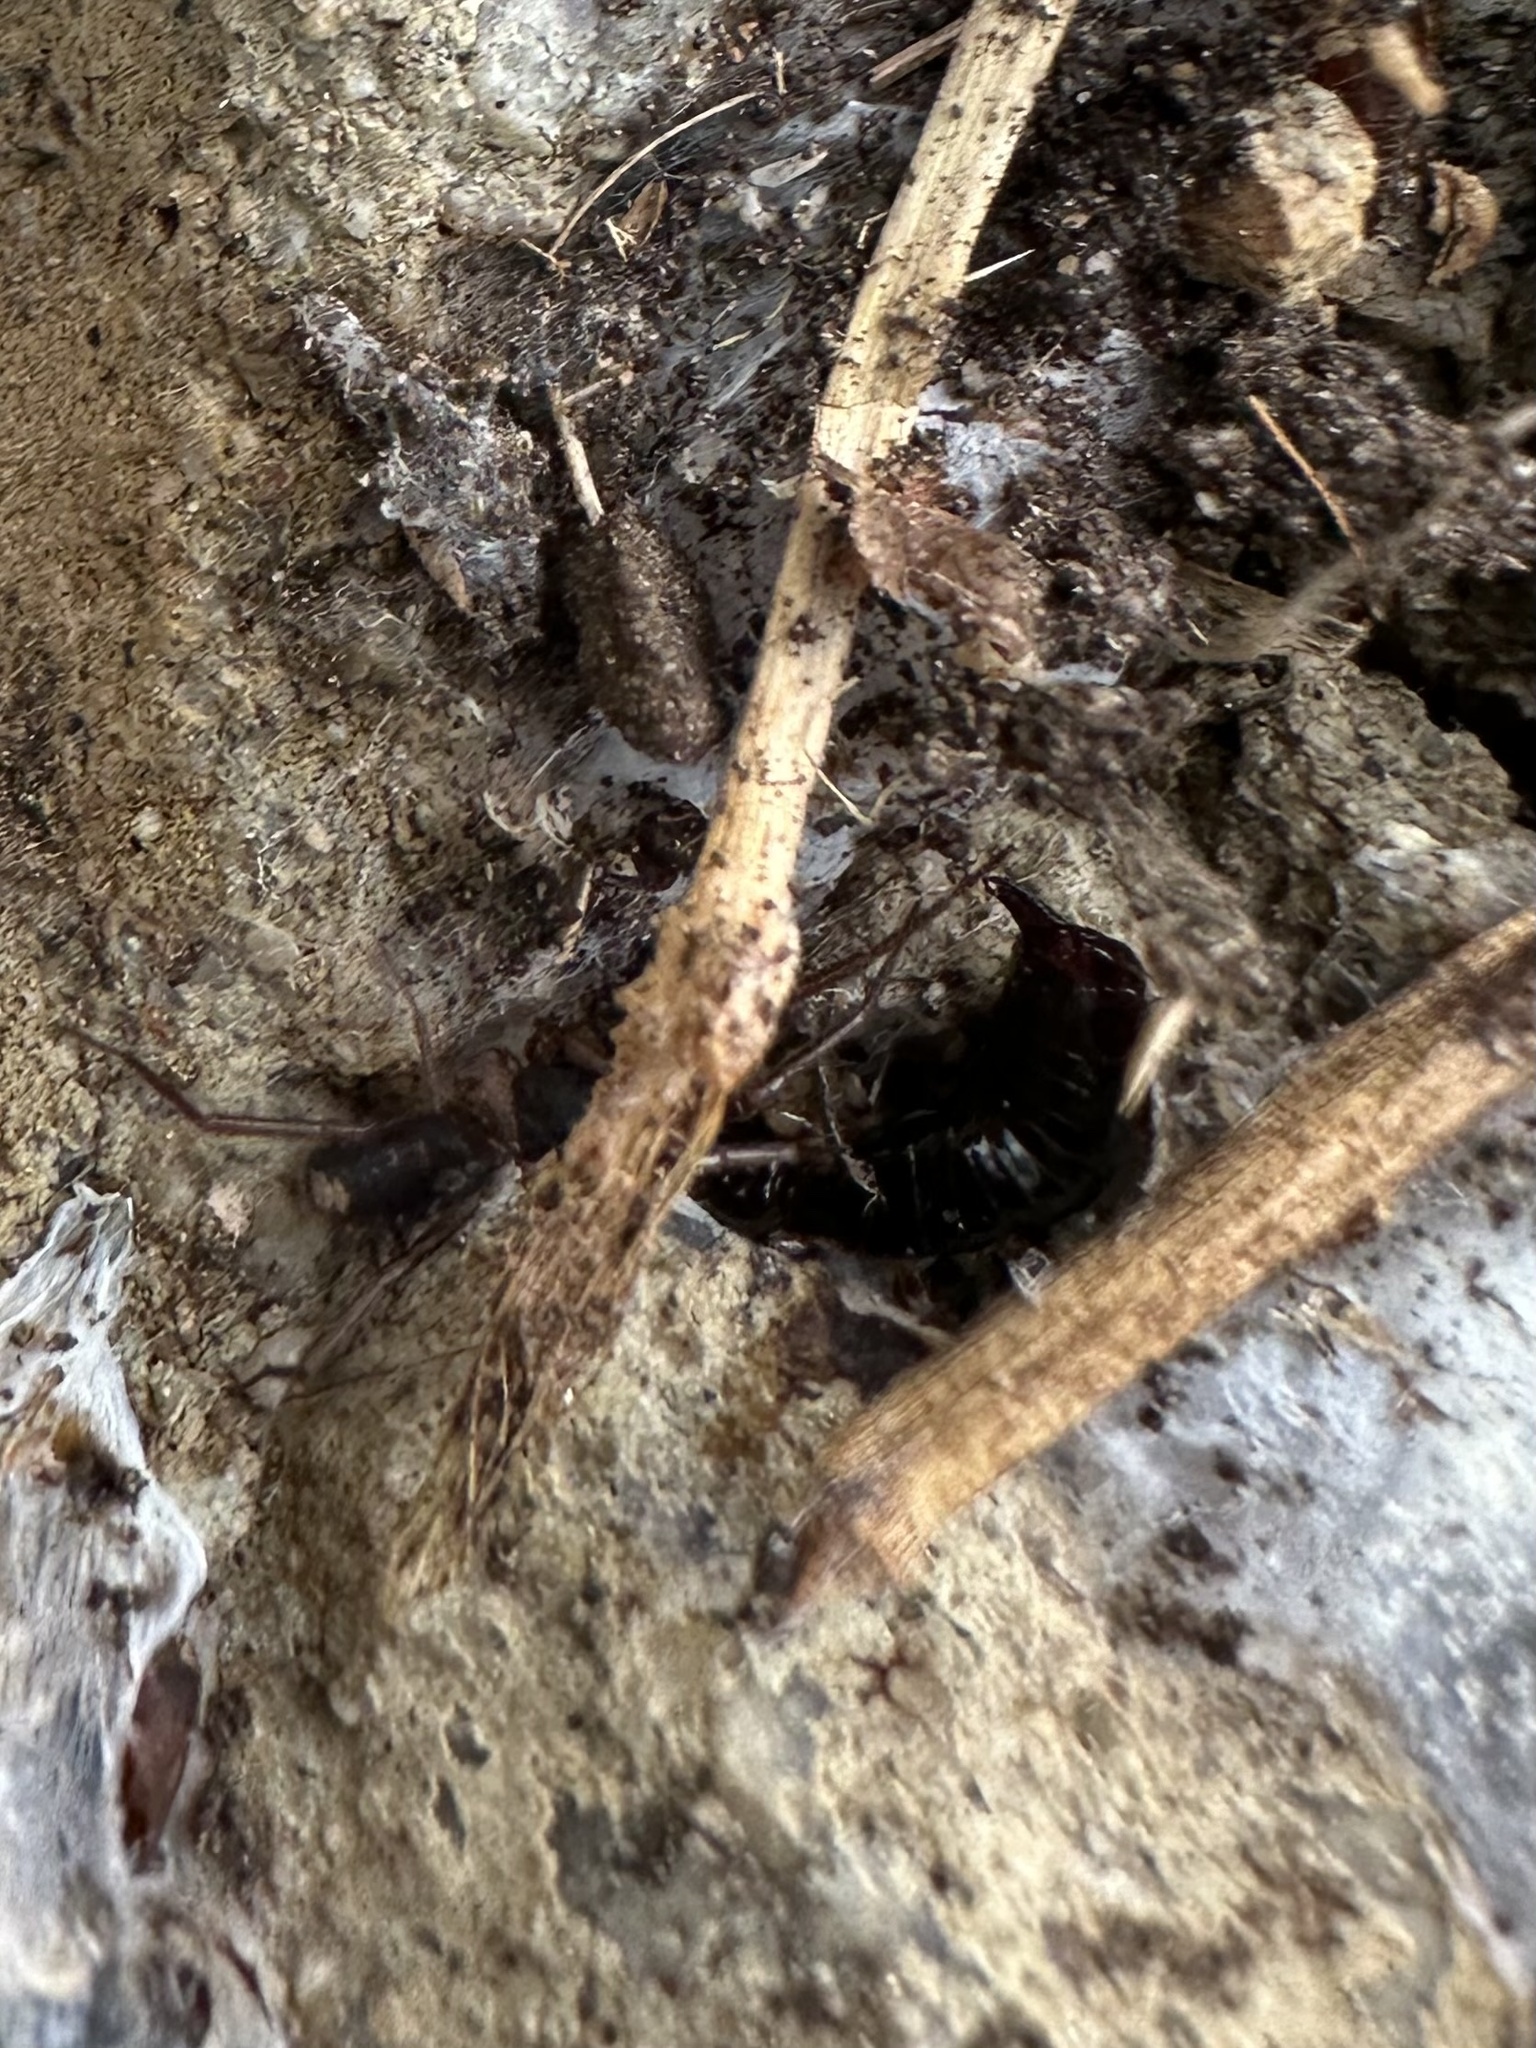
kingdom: Animalia
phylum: Arthropoda
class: Arachnida
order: Araneae
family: Corinnidae
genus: Falconina
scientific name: Falconina gracilis
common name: Antmimic spider
